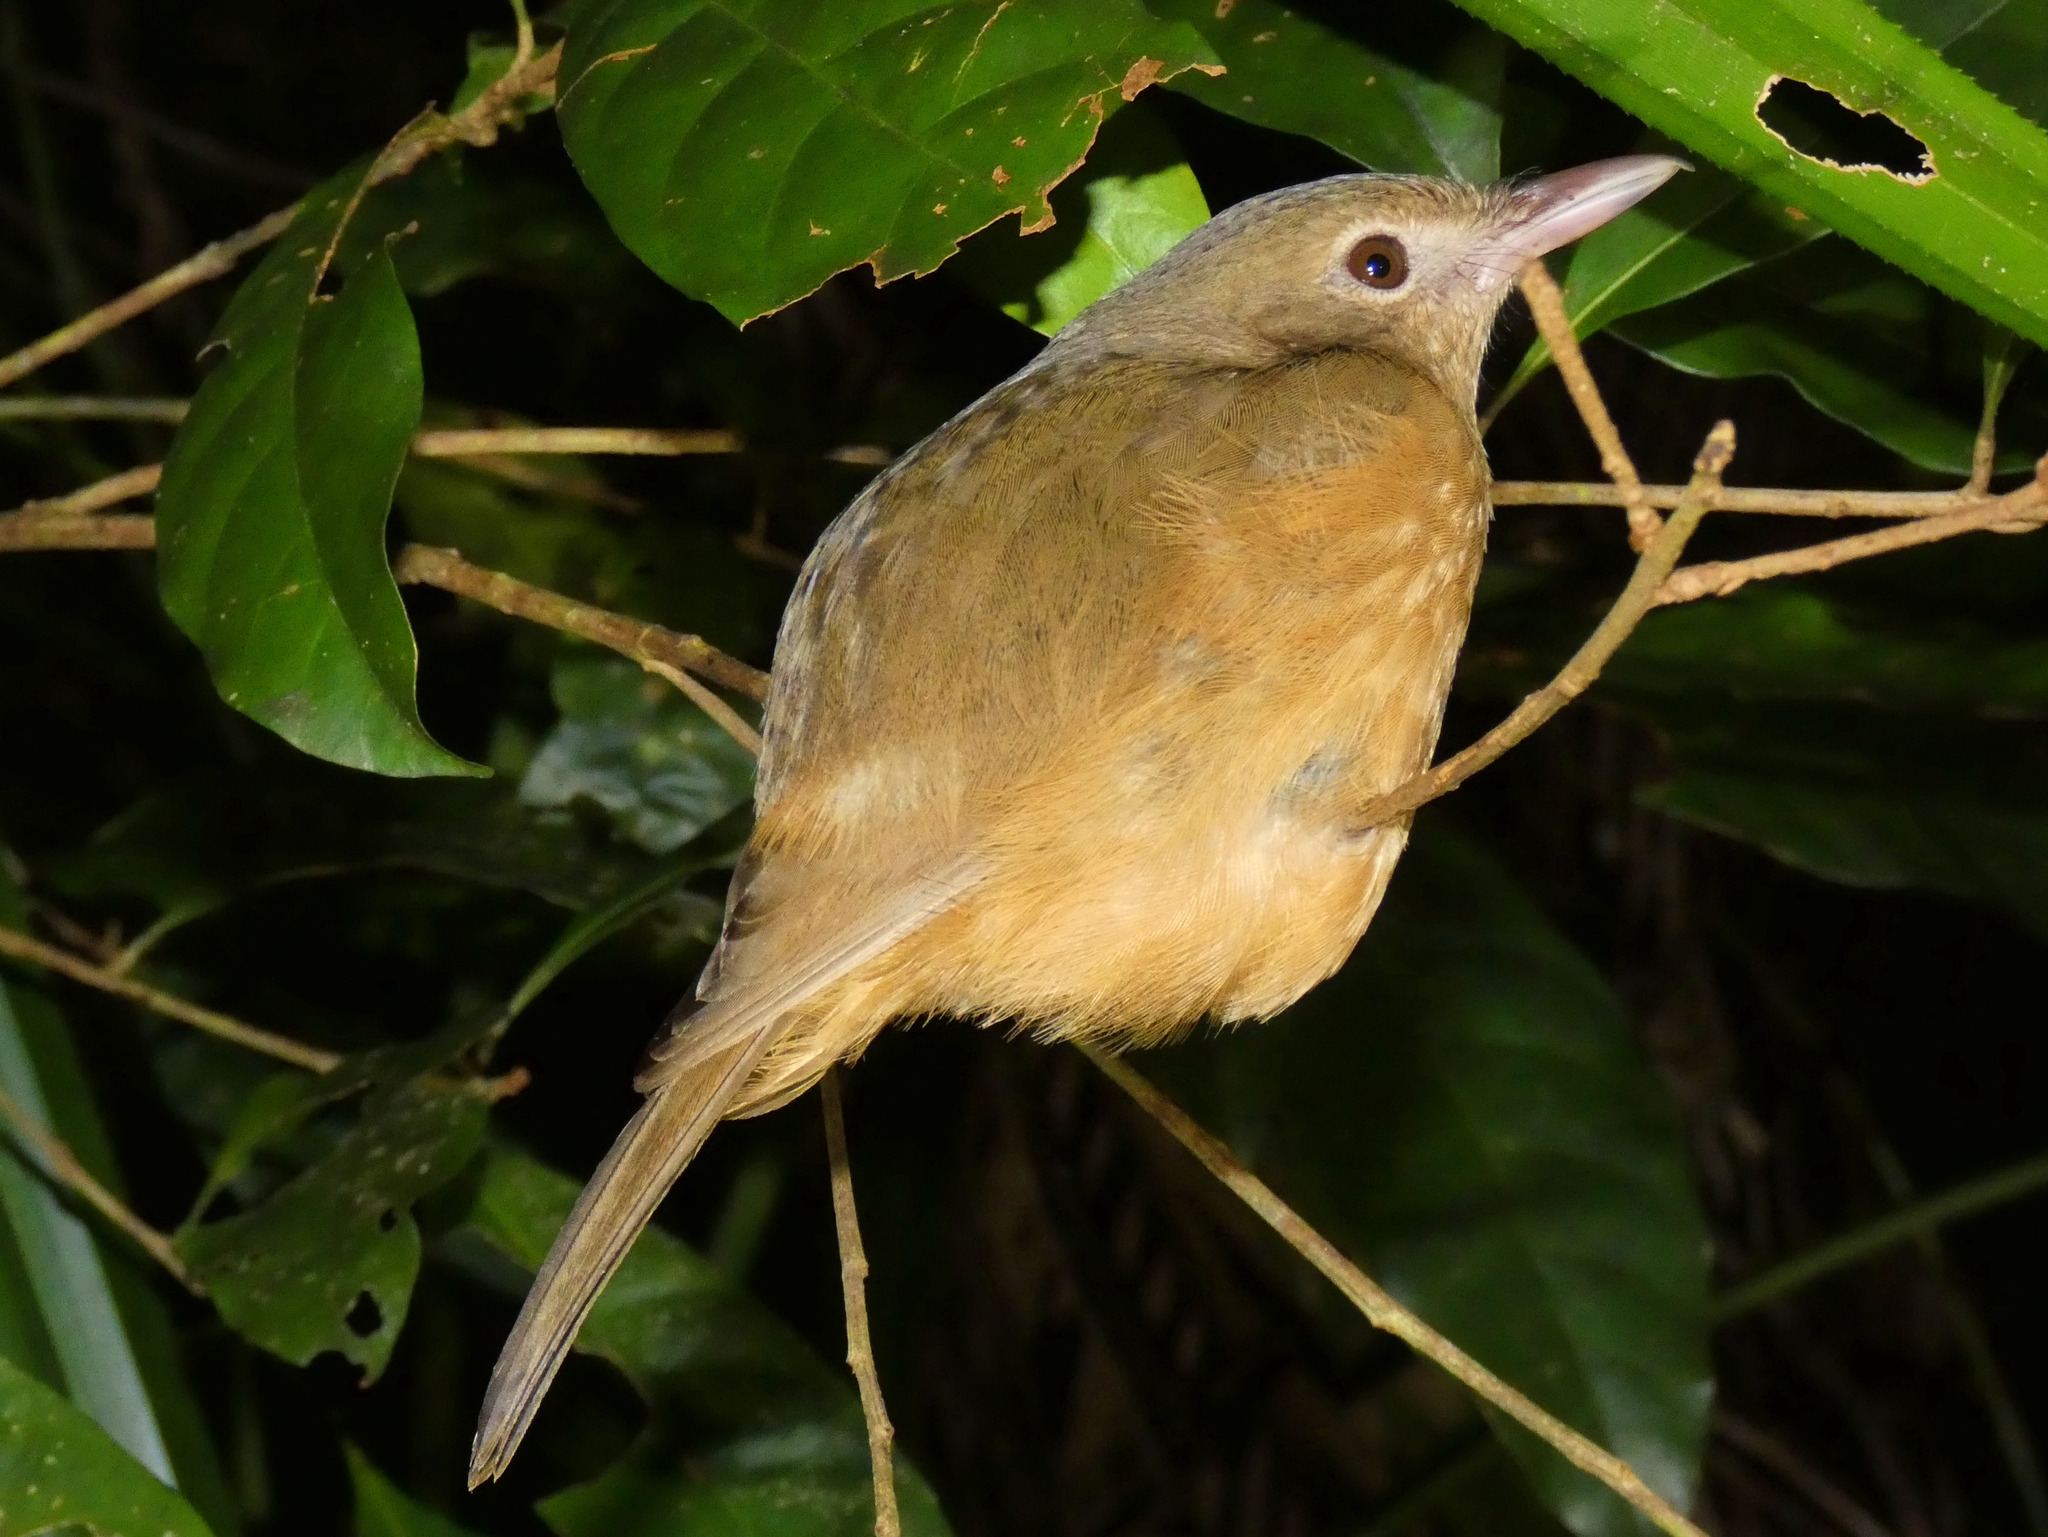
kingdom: Animalia
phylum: Chordata
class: Aves
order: Passeriformes
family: Pachycephalidae
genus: Colluricincla
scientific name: Colluricincla rufogaster
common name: Rufous shrikethrush
